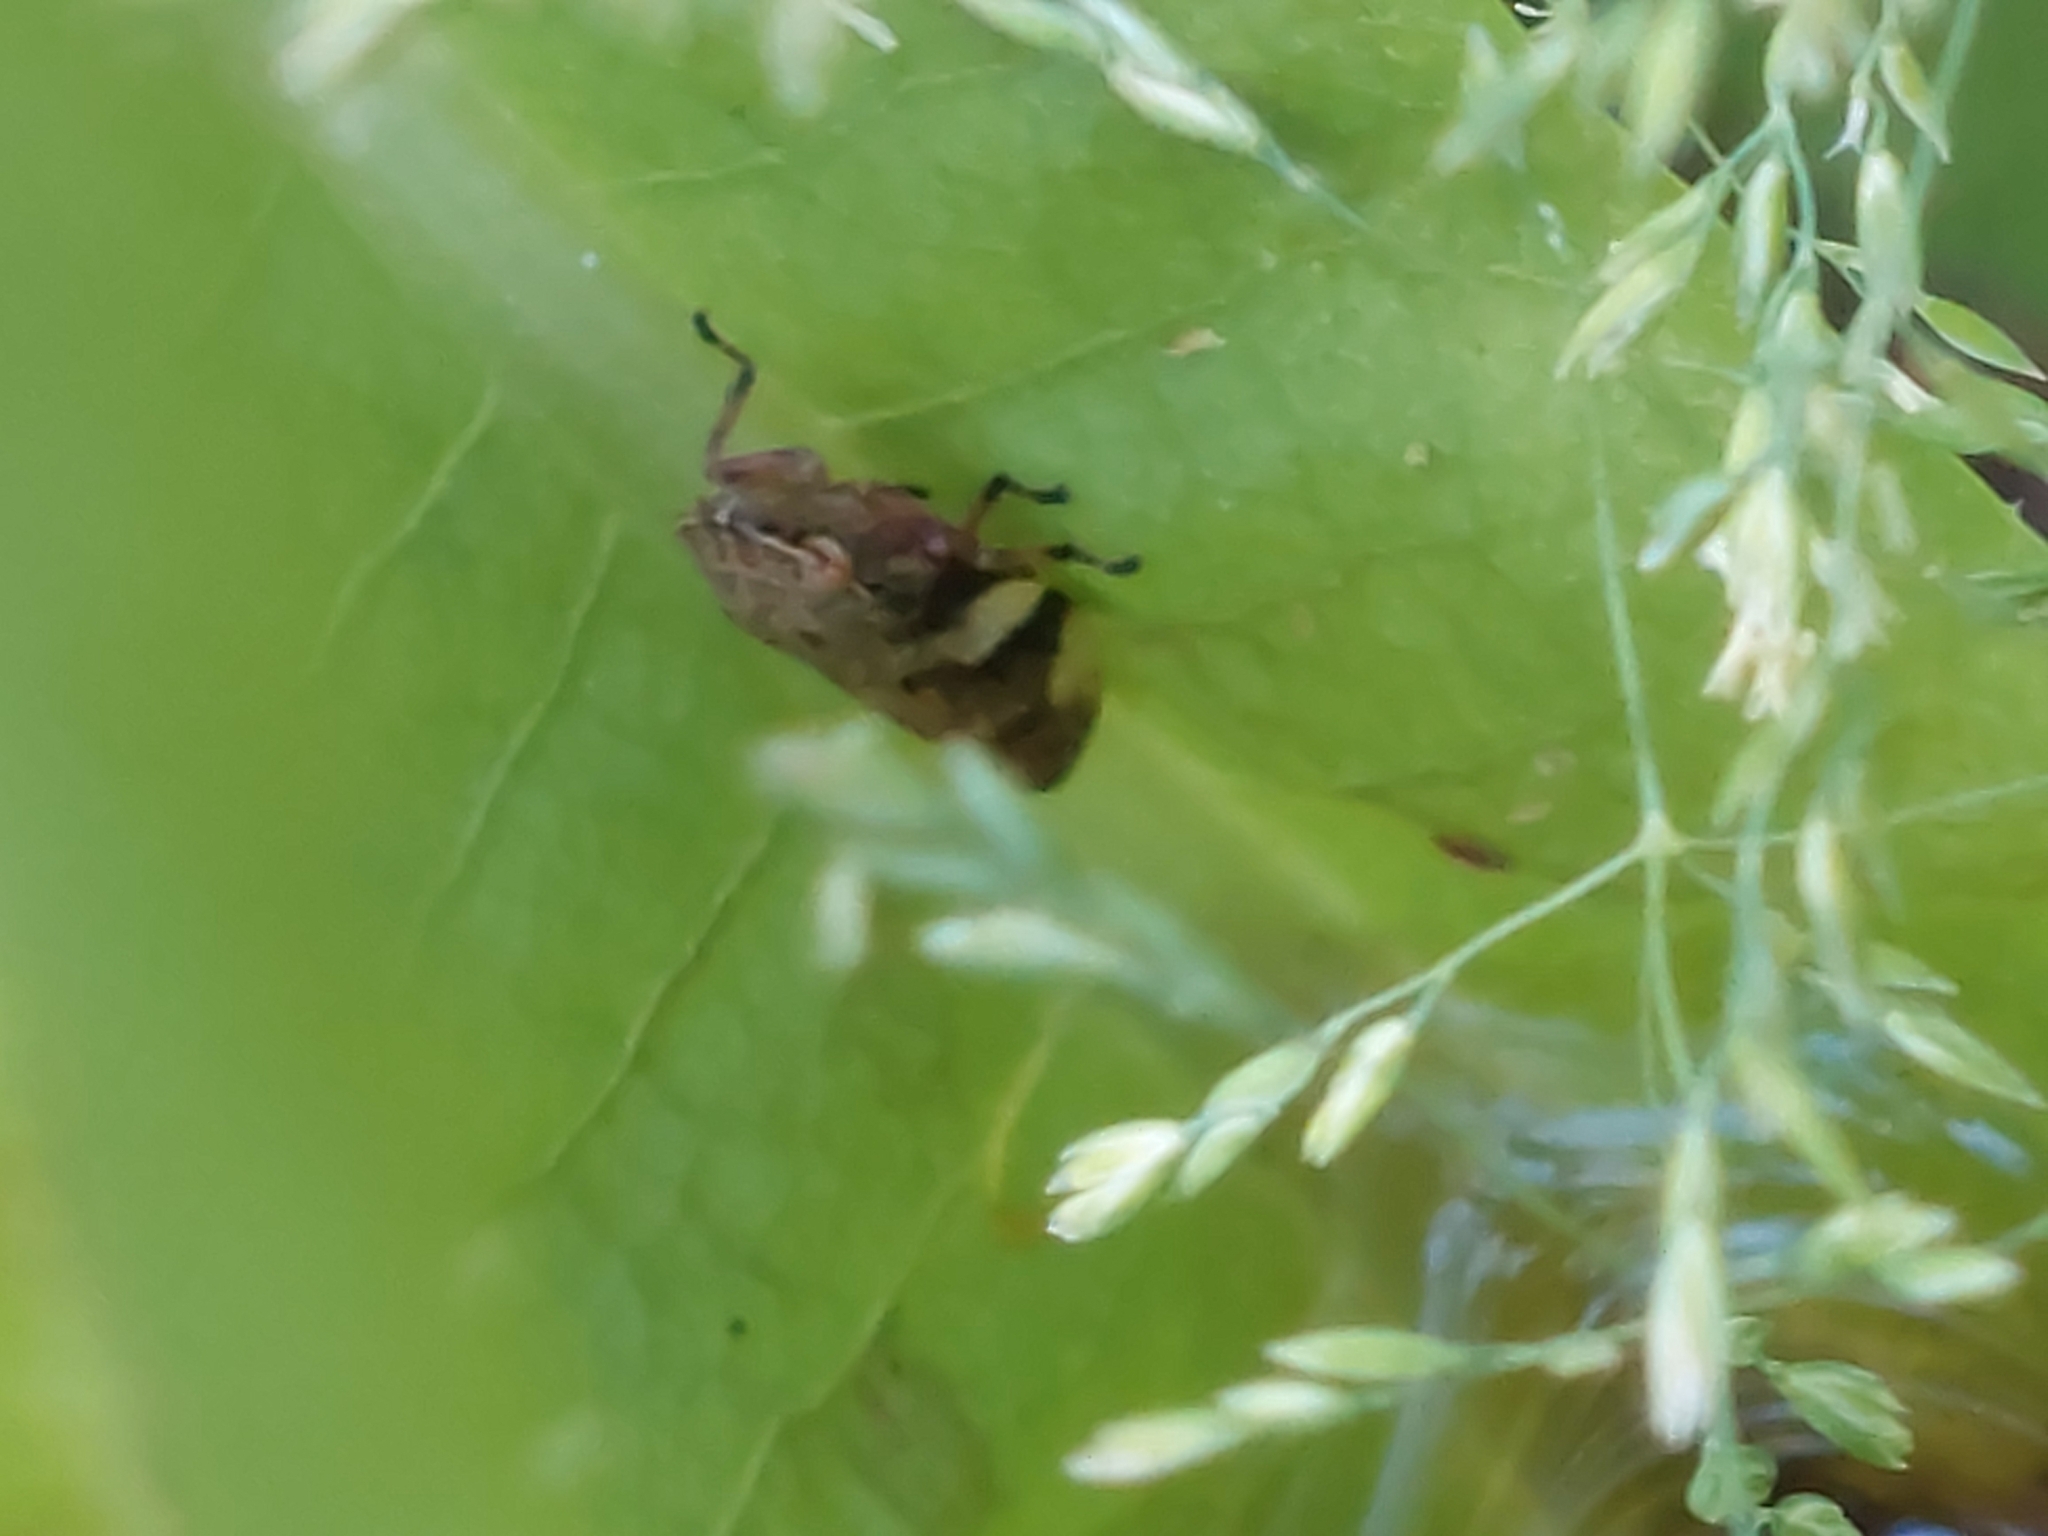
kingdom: Animalia
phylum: Arthropoda
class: Insecta
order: Hemiptera
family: Aphrophoridae
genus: Philaenus
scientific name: Philaenus spumarius
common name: Meadow spittlebug
